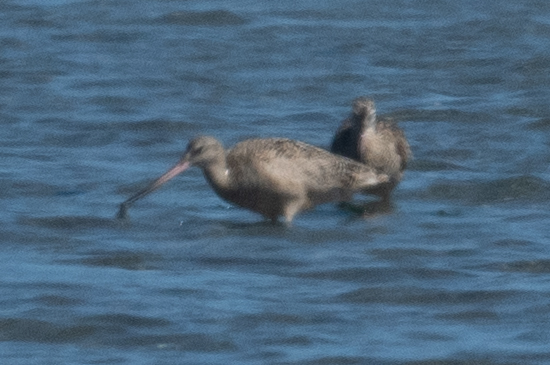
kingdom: Animalia
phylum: Chordata
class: Aves
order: Charadriiformes
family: Scolopacidae
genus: Limosa
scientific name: Limosa fedoa
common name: Marbled godwit
